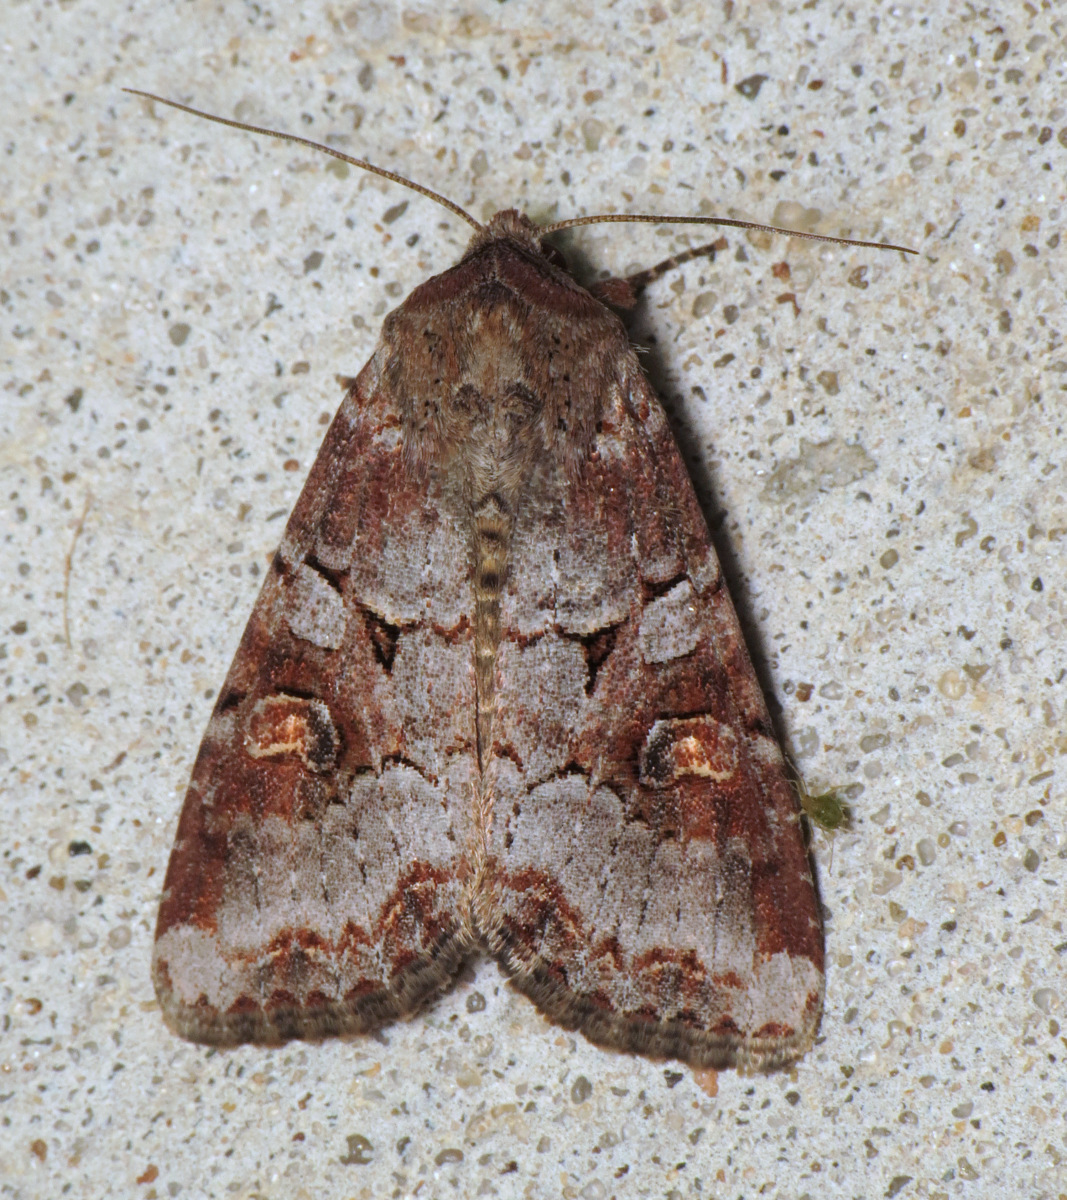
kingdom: Animalia
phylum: Arthropoda
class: Insecta
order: Lepidoptera
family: Noctuidae
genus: Trichordestra
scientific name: Trichordestra legitima
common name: Striped garden caterpillar
